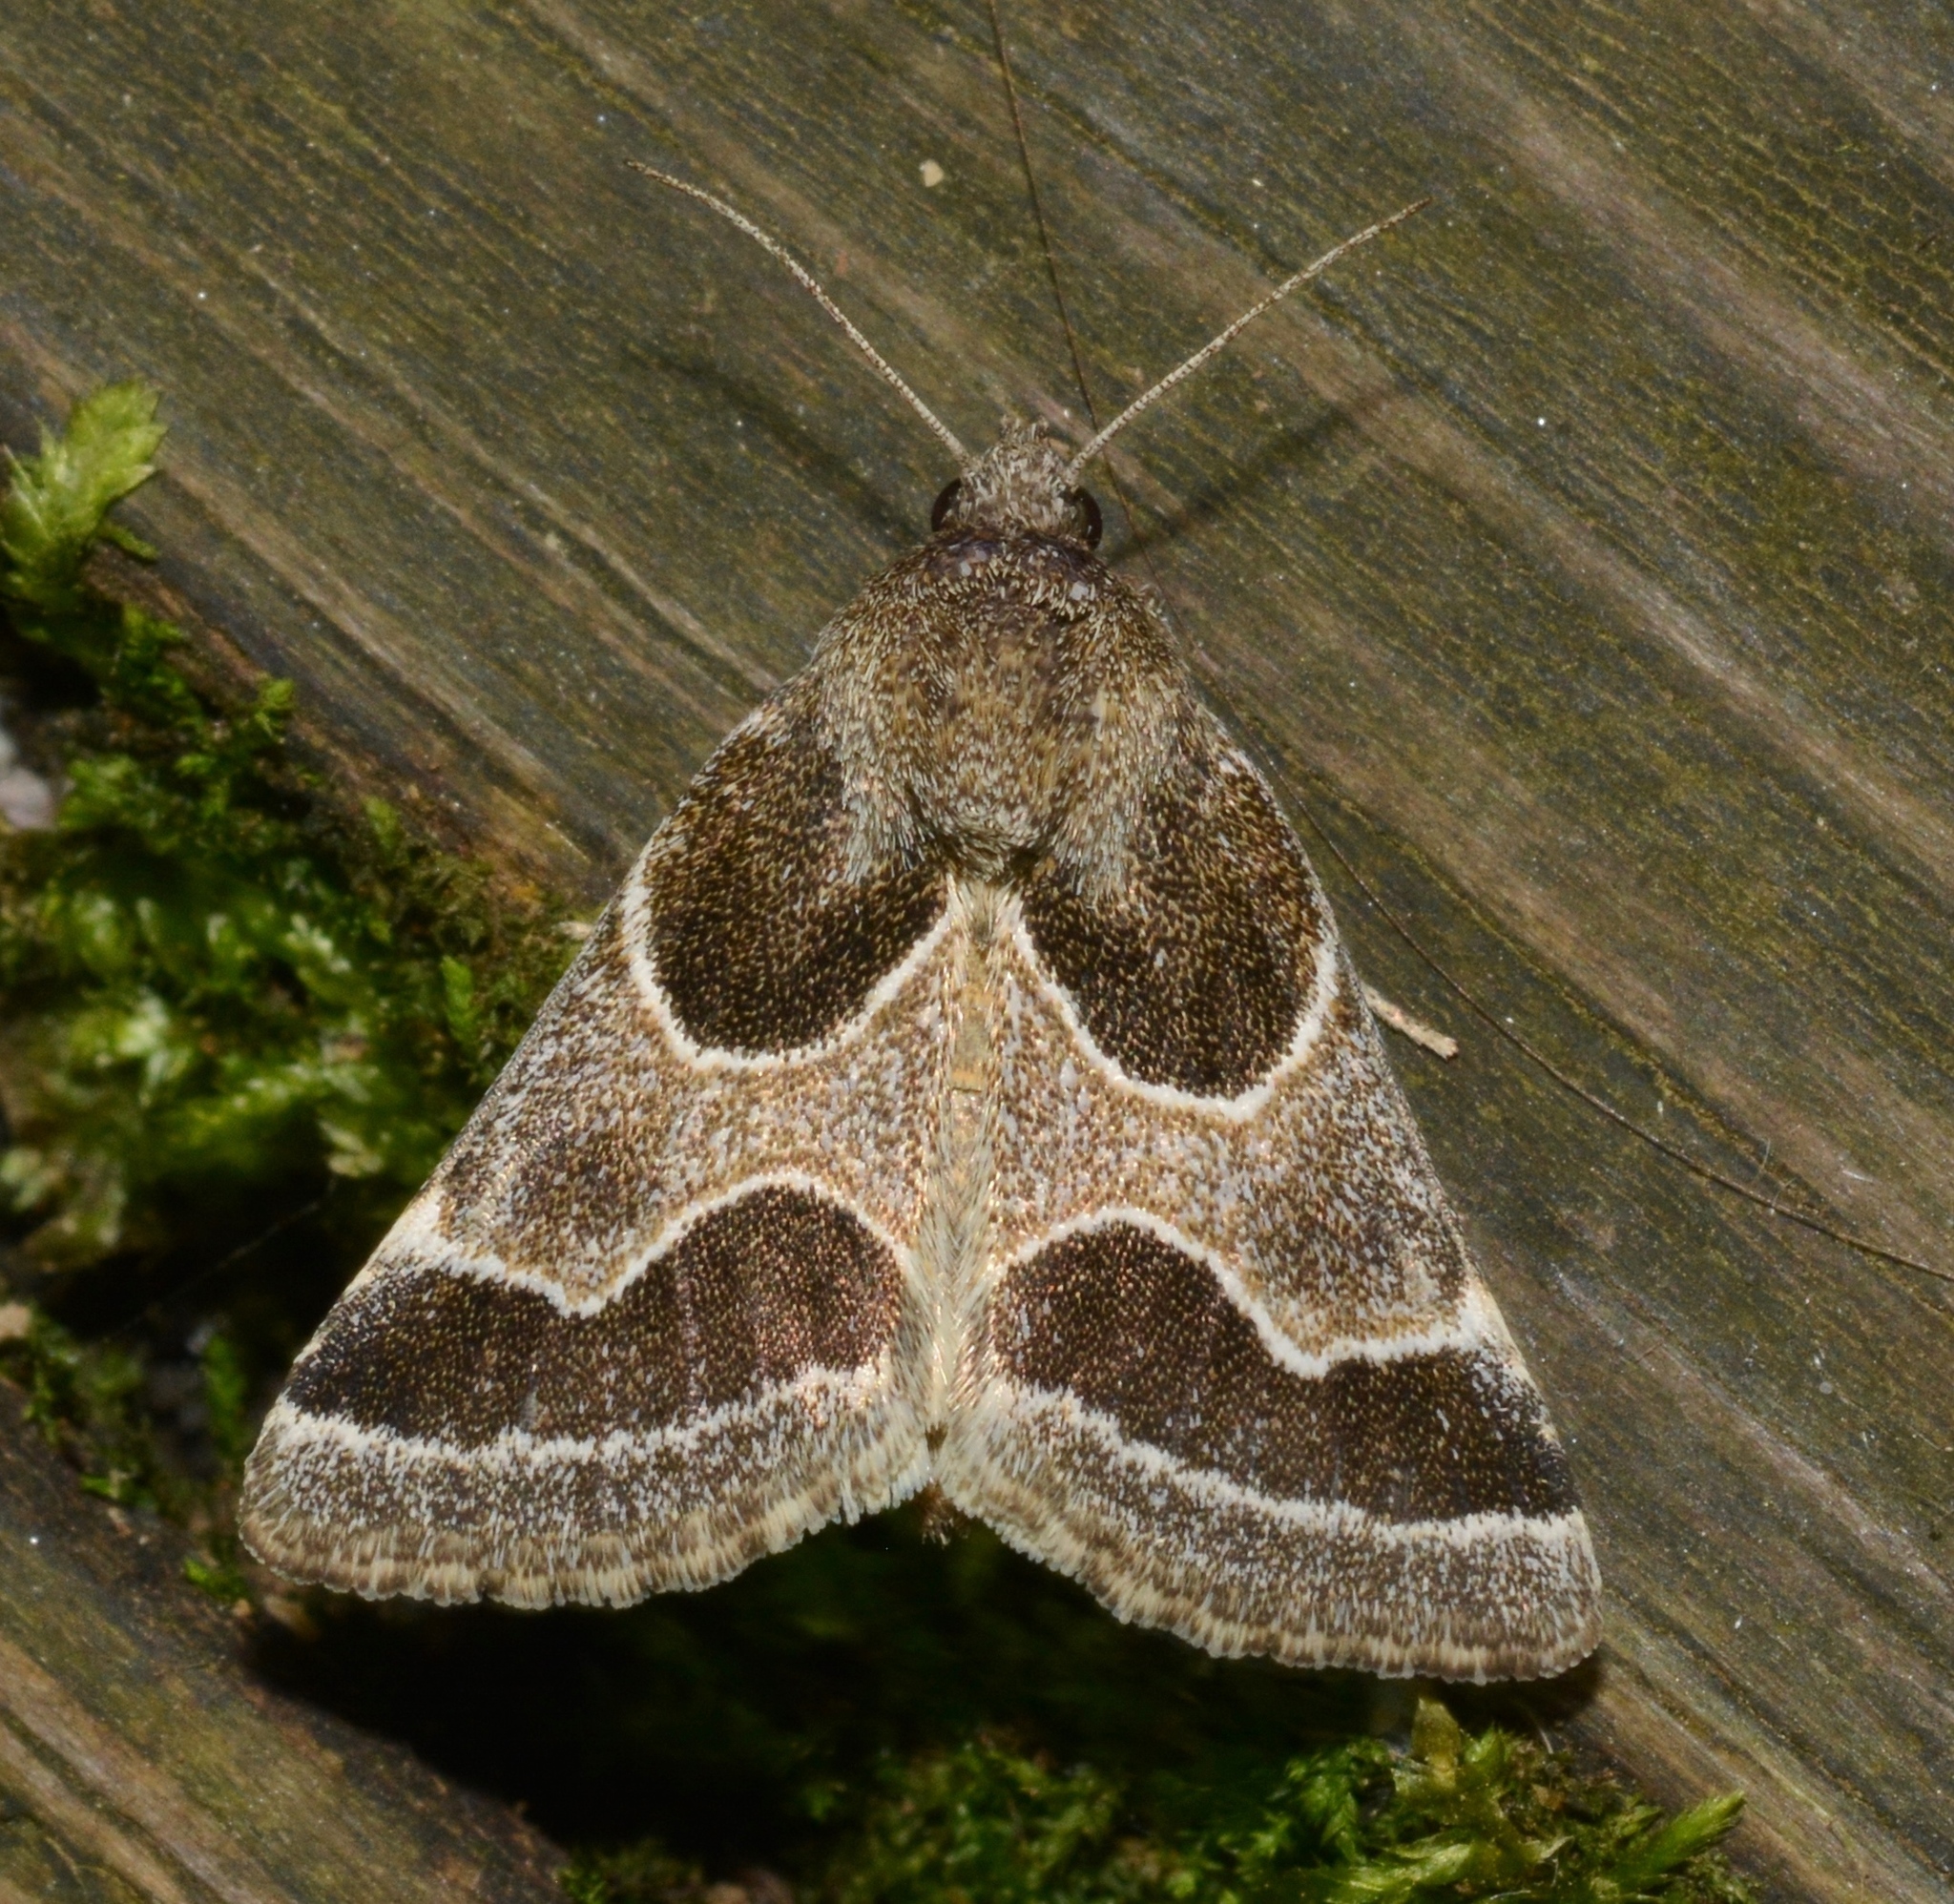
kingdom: Animalia
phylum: Arthropoda
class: Insecta
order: Lepidoptera
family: Noctuidae
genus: Schinia
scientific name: Schinia rivulosa
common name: Scarce meal-moth
